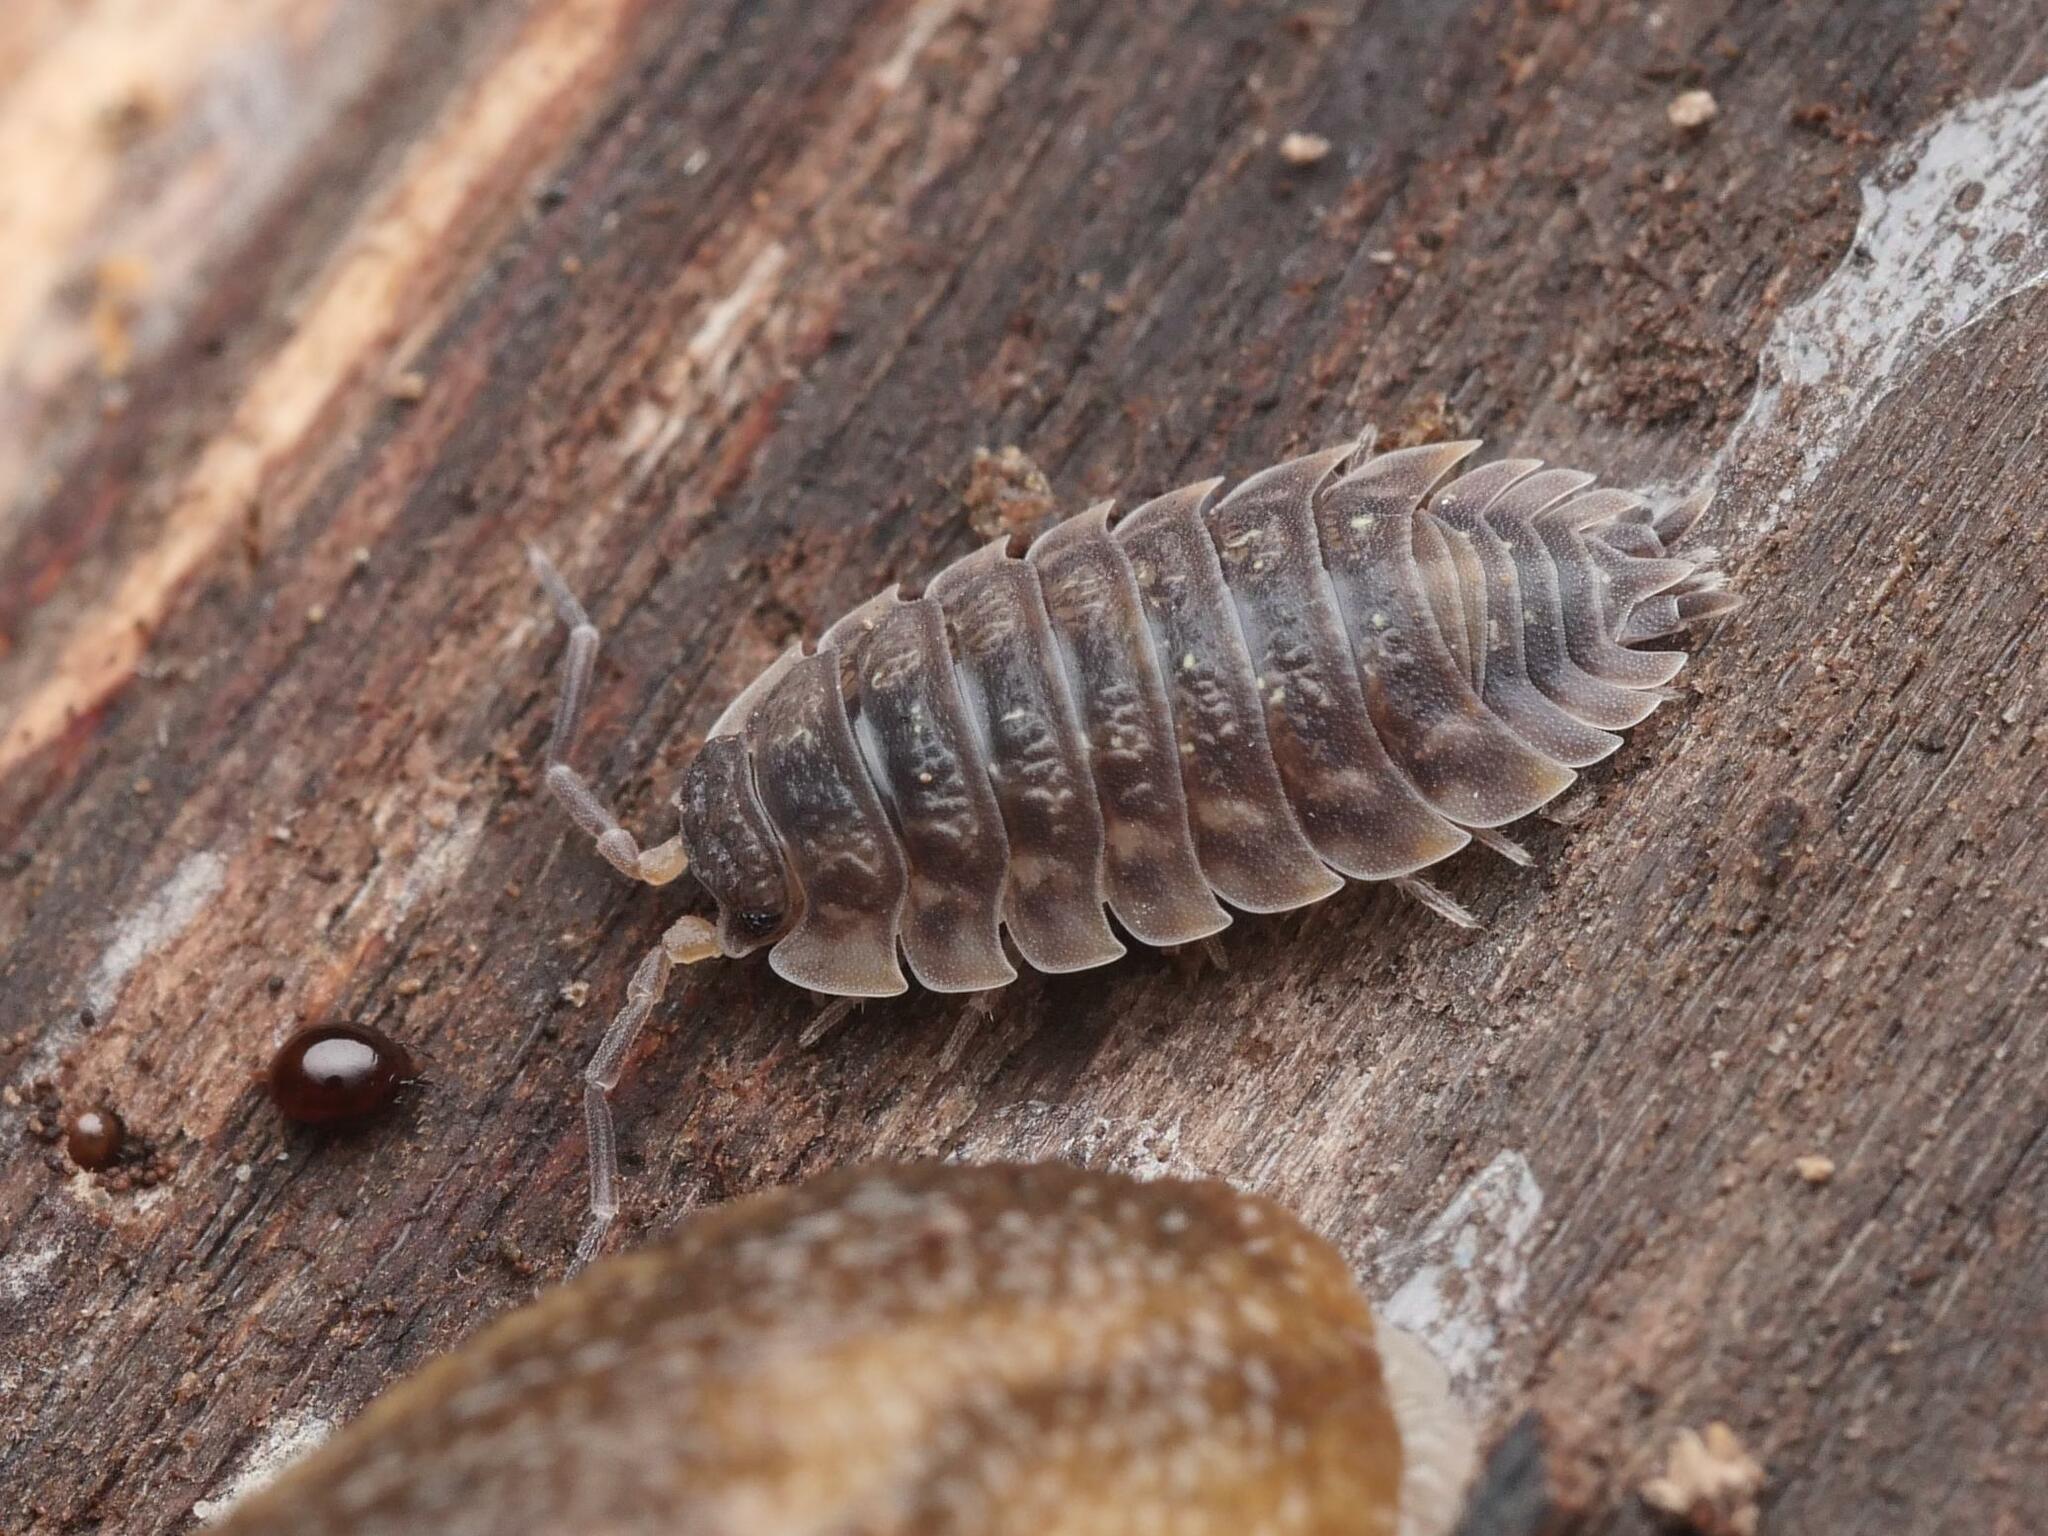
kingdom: Animalia
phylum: Arthropoda
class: Malacostraca
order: Isopoda
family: Oniscidae
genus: Oniscus
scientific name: Oniscus asellus
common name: Common shiny woodlouse
